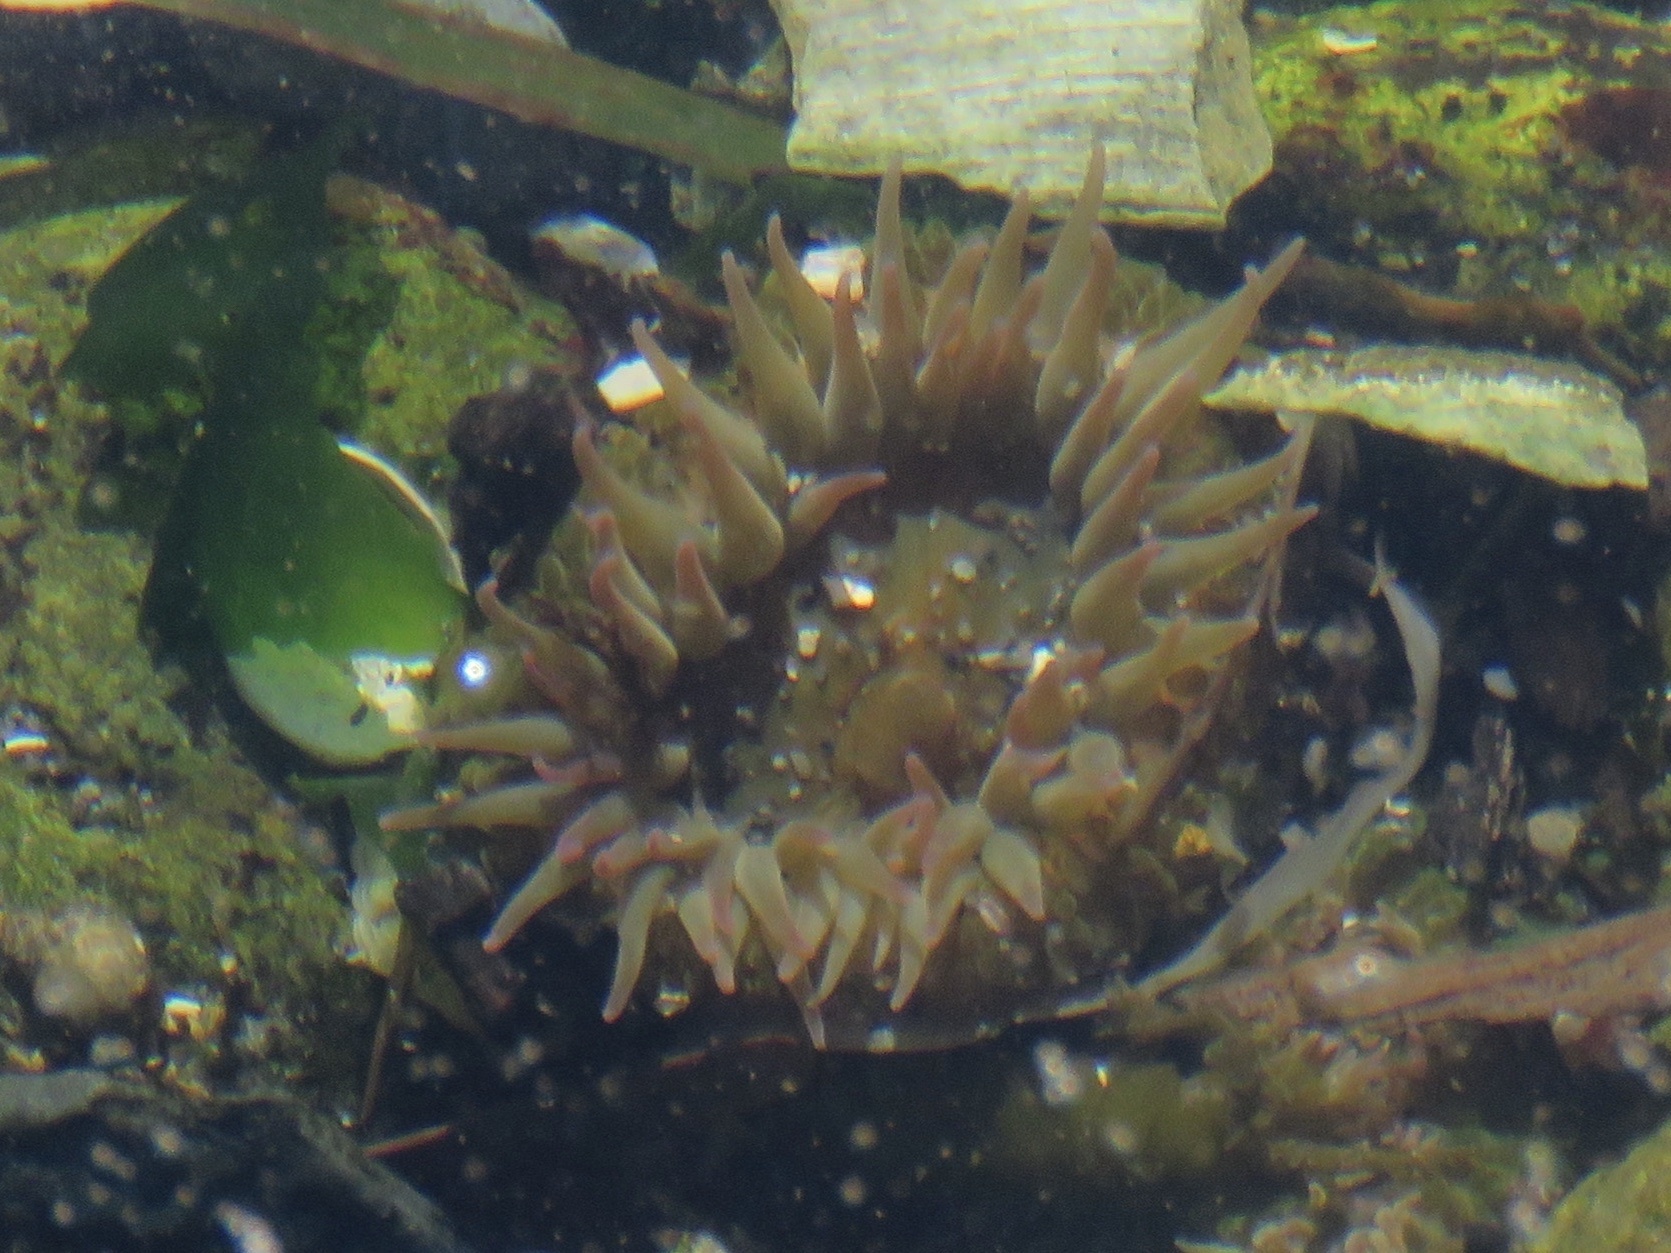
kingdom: Animalia
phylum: Cnidaria
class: Anthozoa
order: Actiniaria
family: Actiniidae
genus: Anthopleura
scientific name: Anthopleura elegantissima
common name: Clonal anemone
